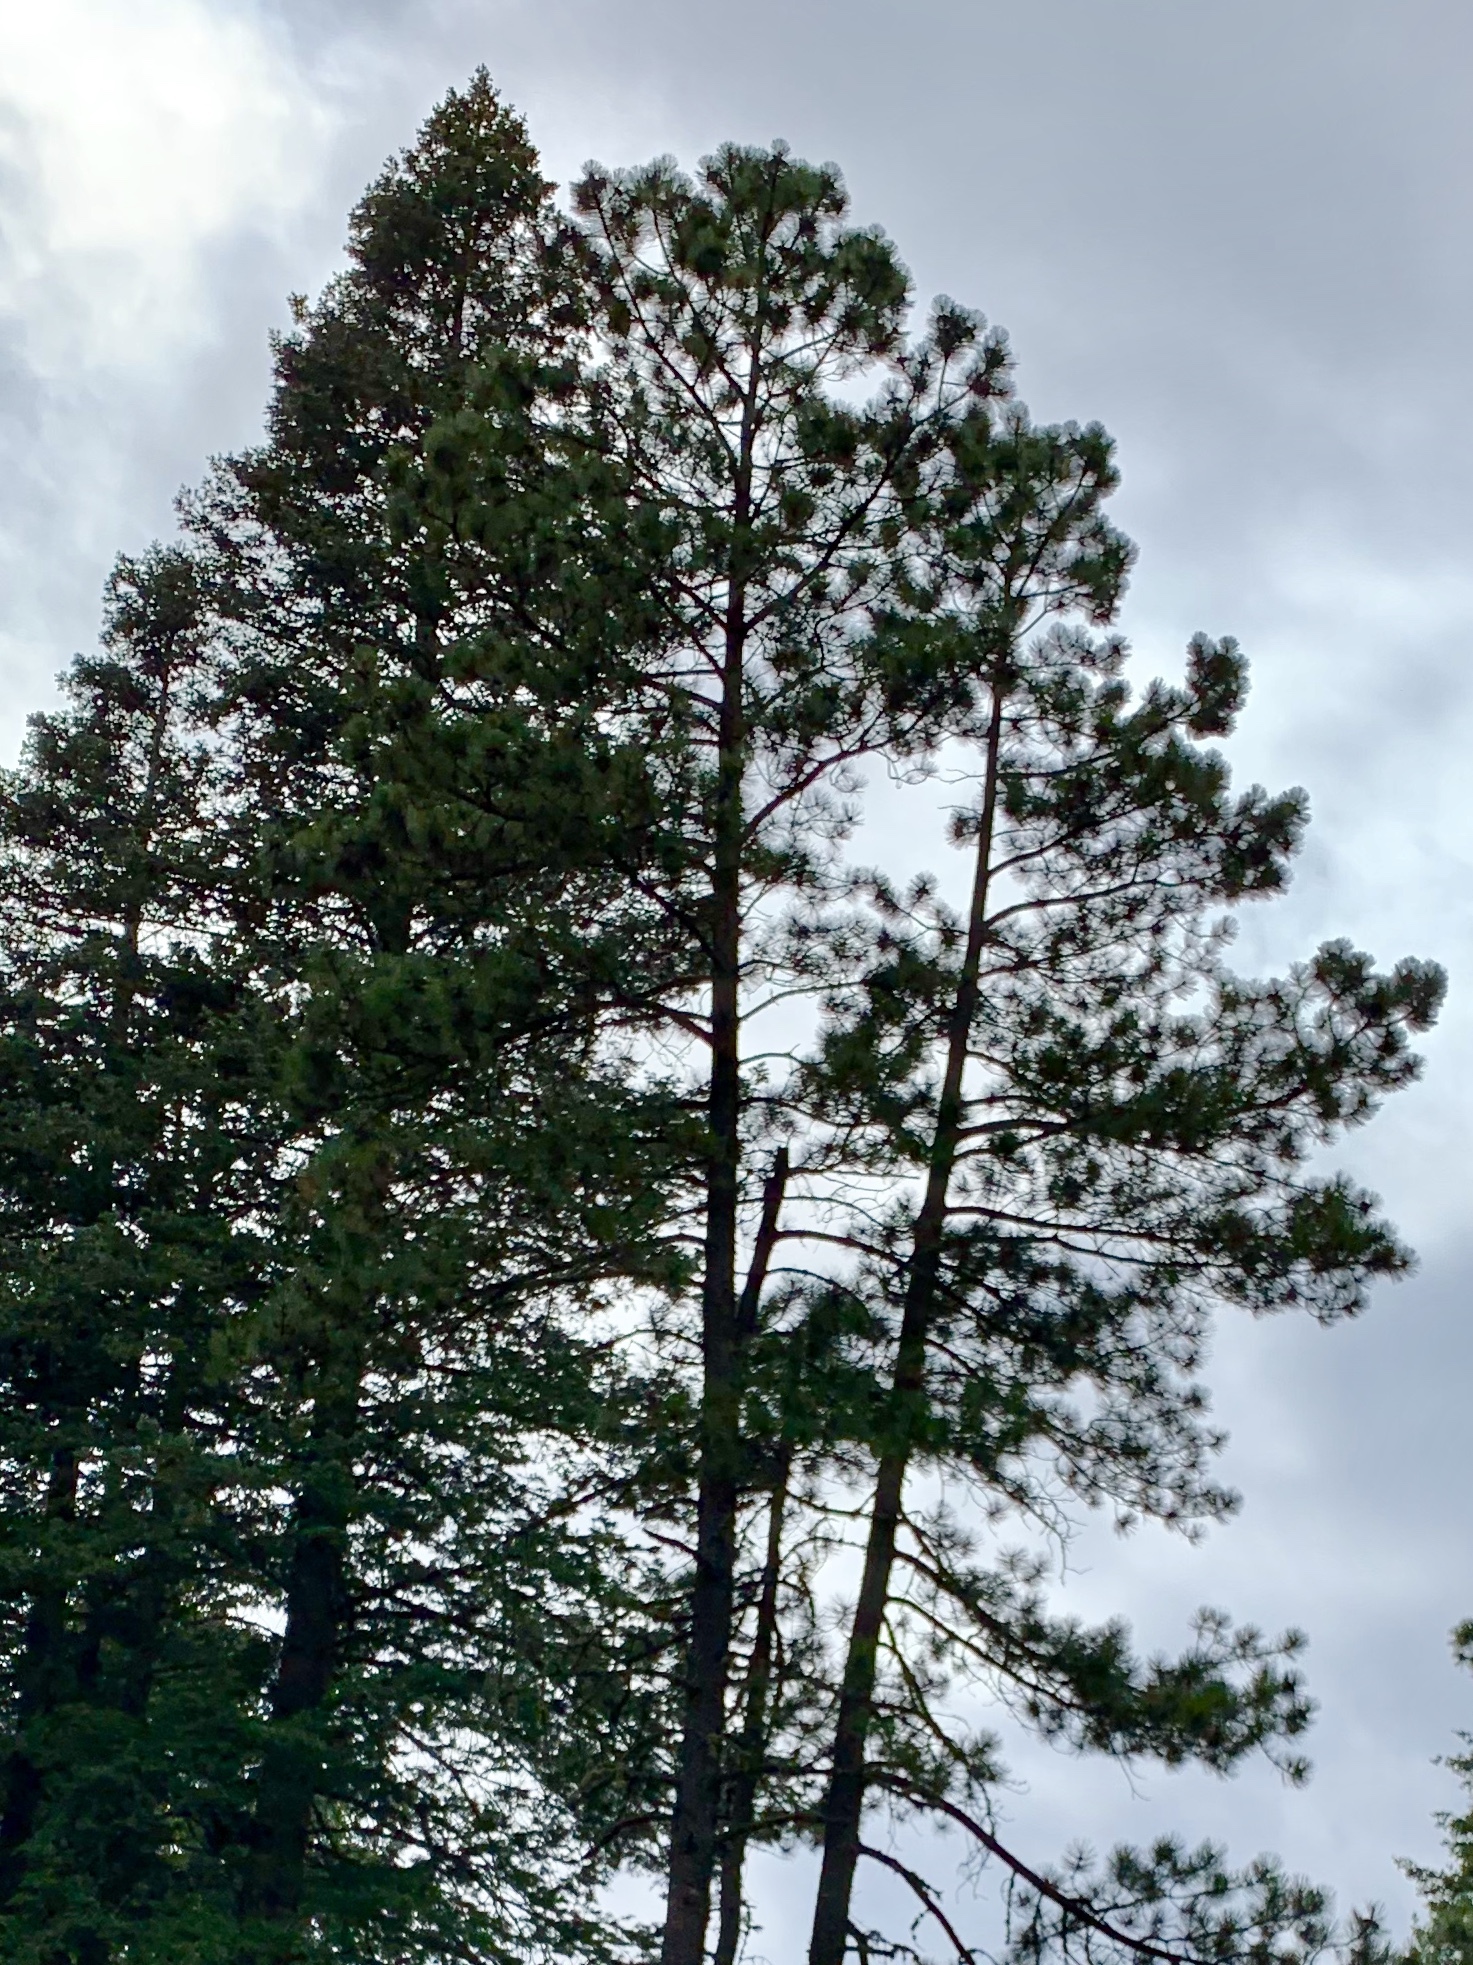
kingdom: Plantae
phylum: Tracheophyta
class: Pinopsida
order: Pinales
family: Pinaceae
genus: Pinus
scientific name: Pinus ponderosa
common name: Western yellow-pine
